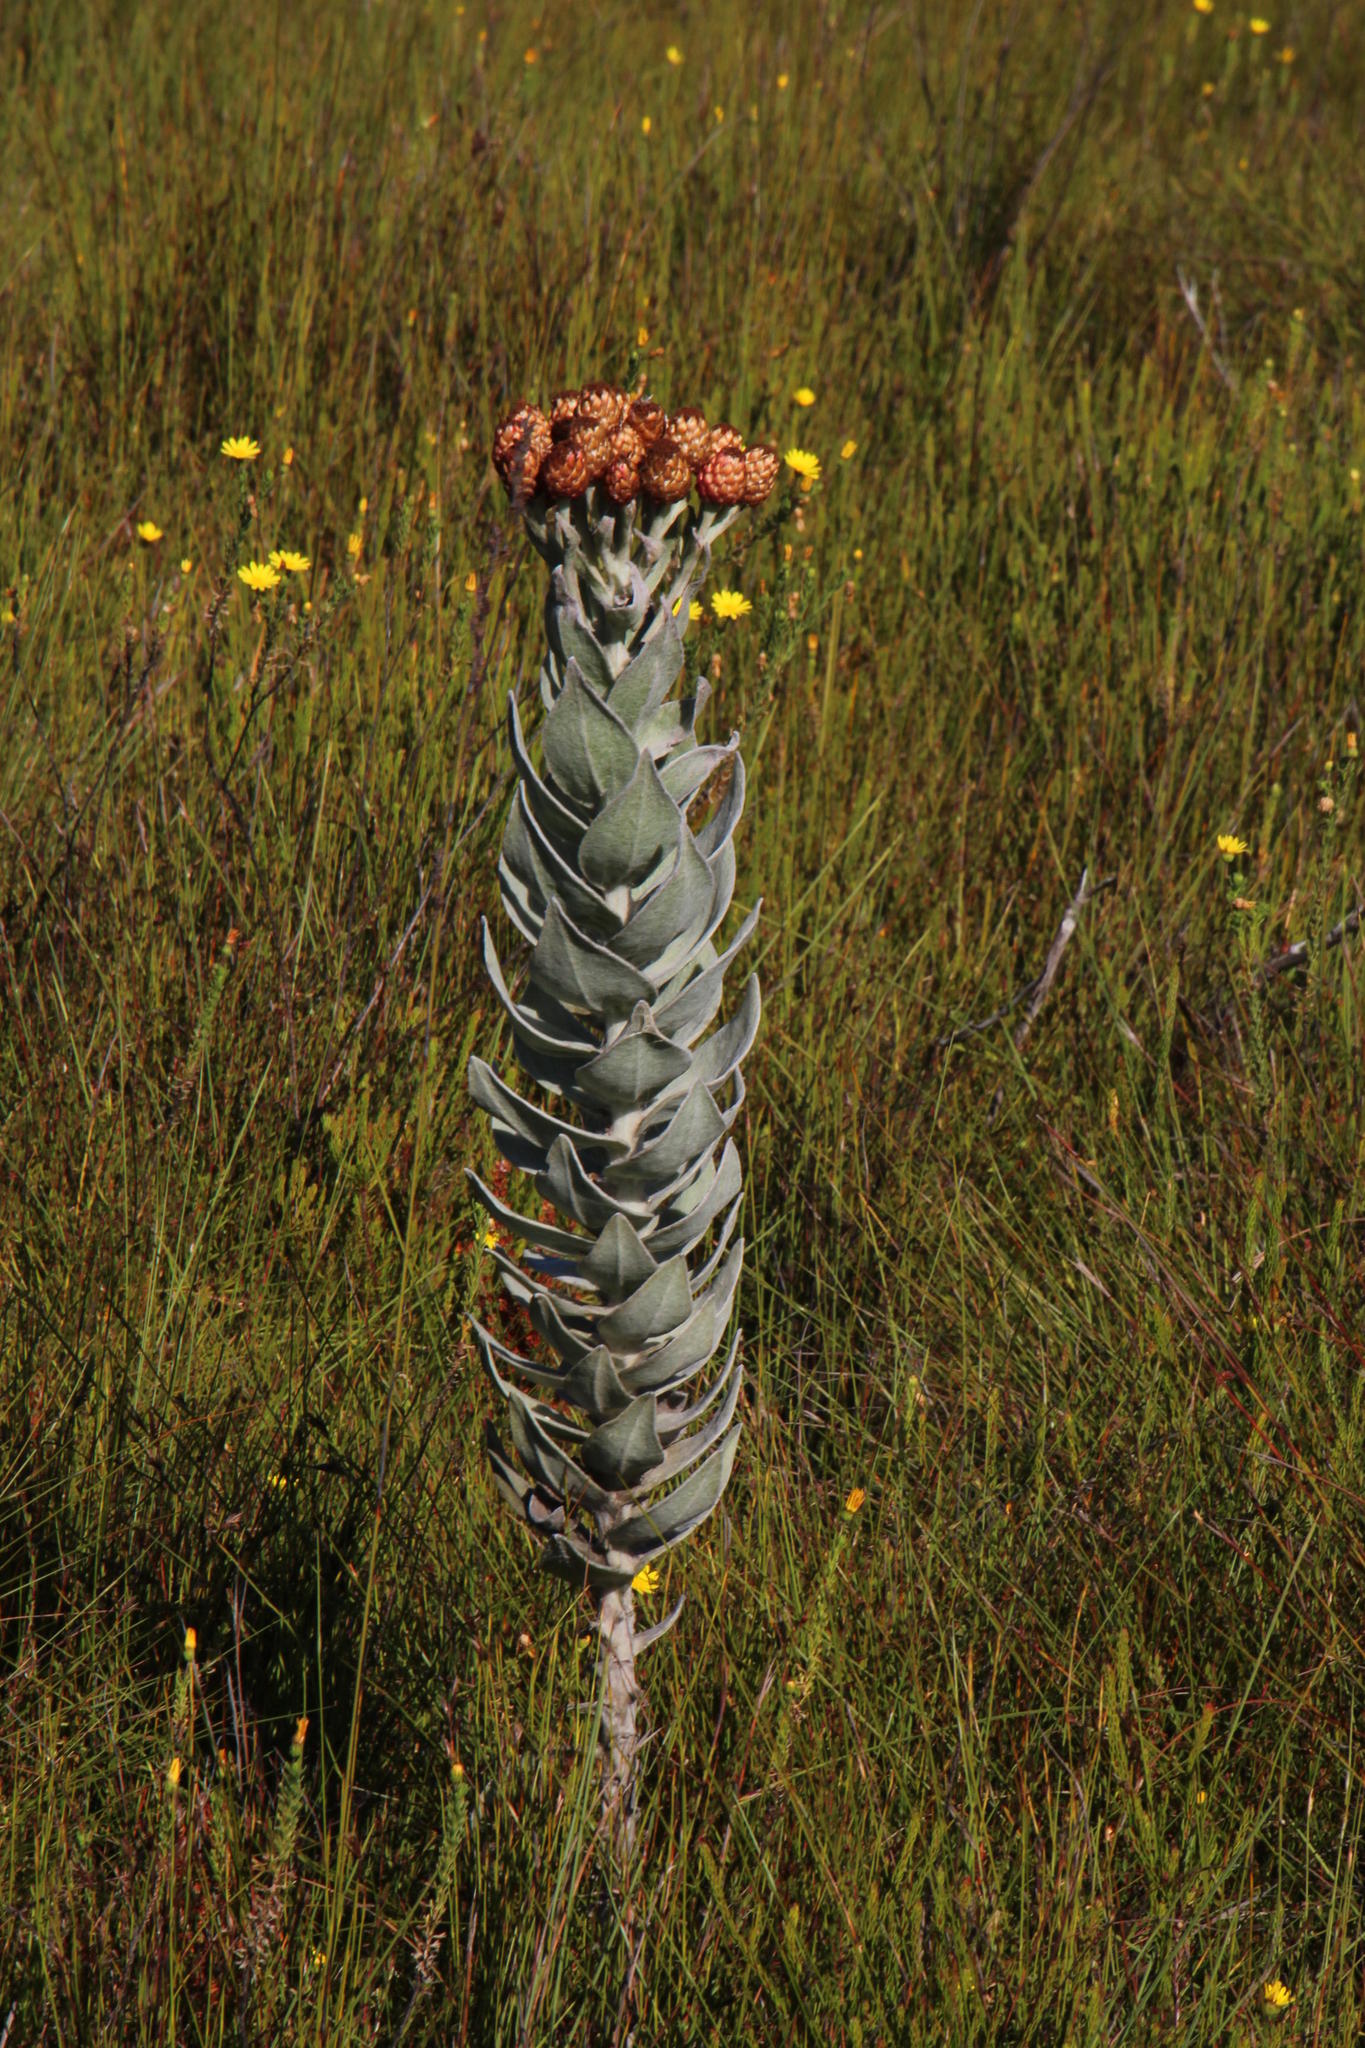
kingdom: Plantae
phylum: Tracheophyta
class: Magnoliopsida
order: Asterales
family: Asteraceae
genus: Syncarpha
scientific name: Syncarpha eximia
